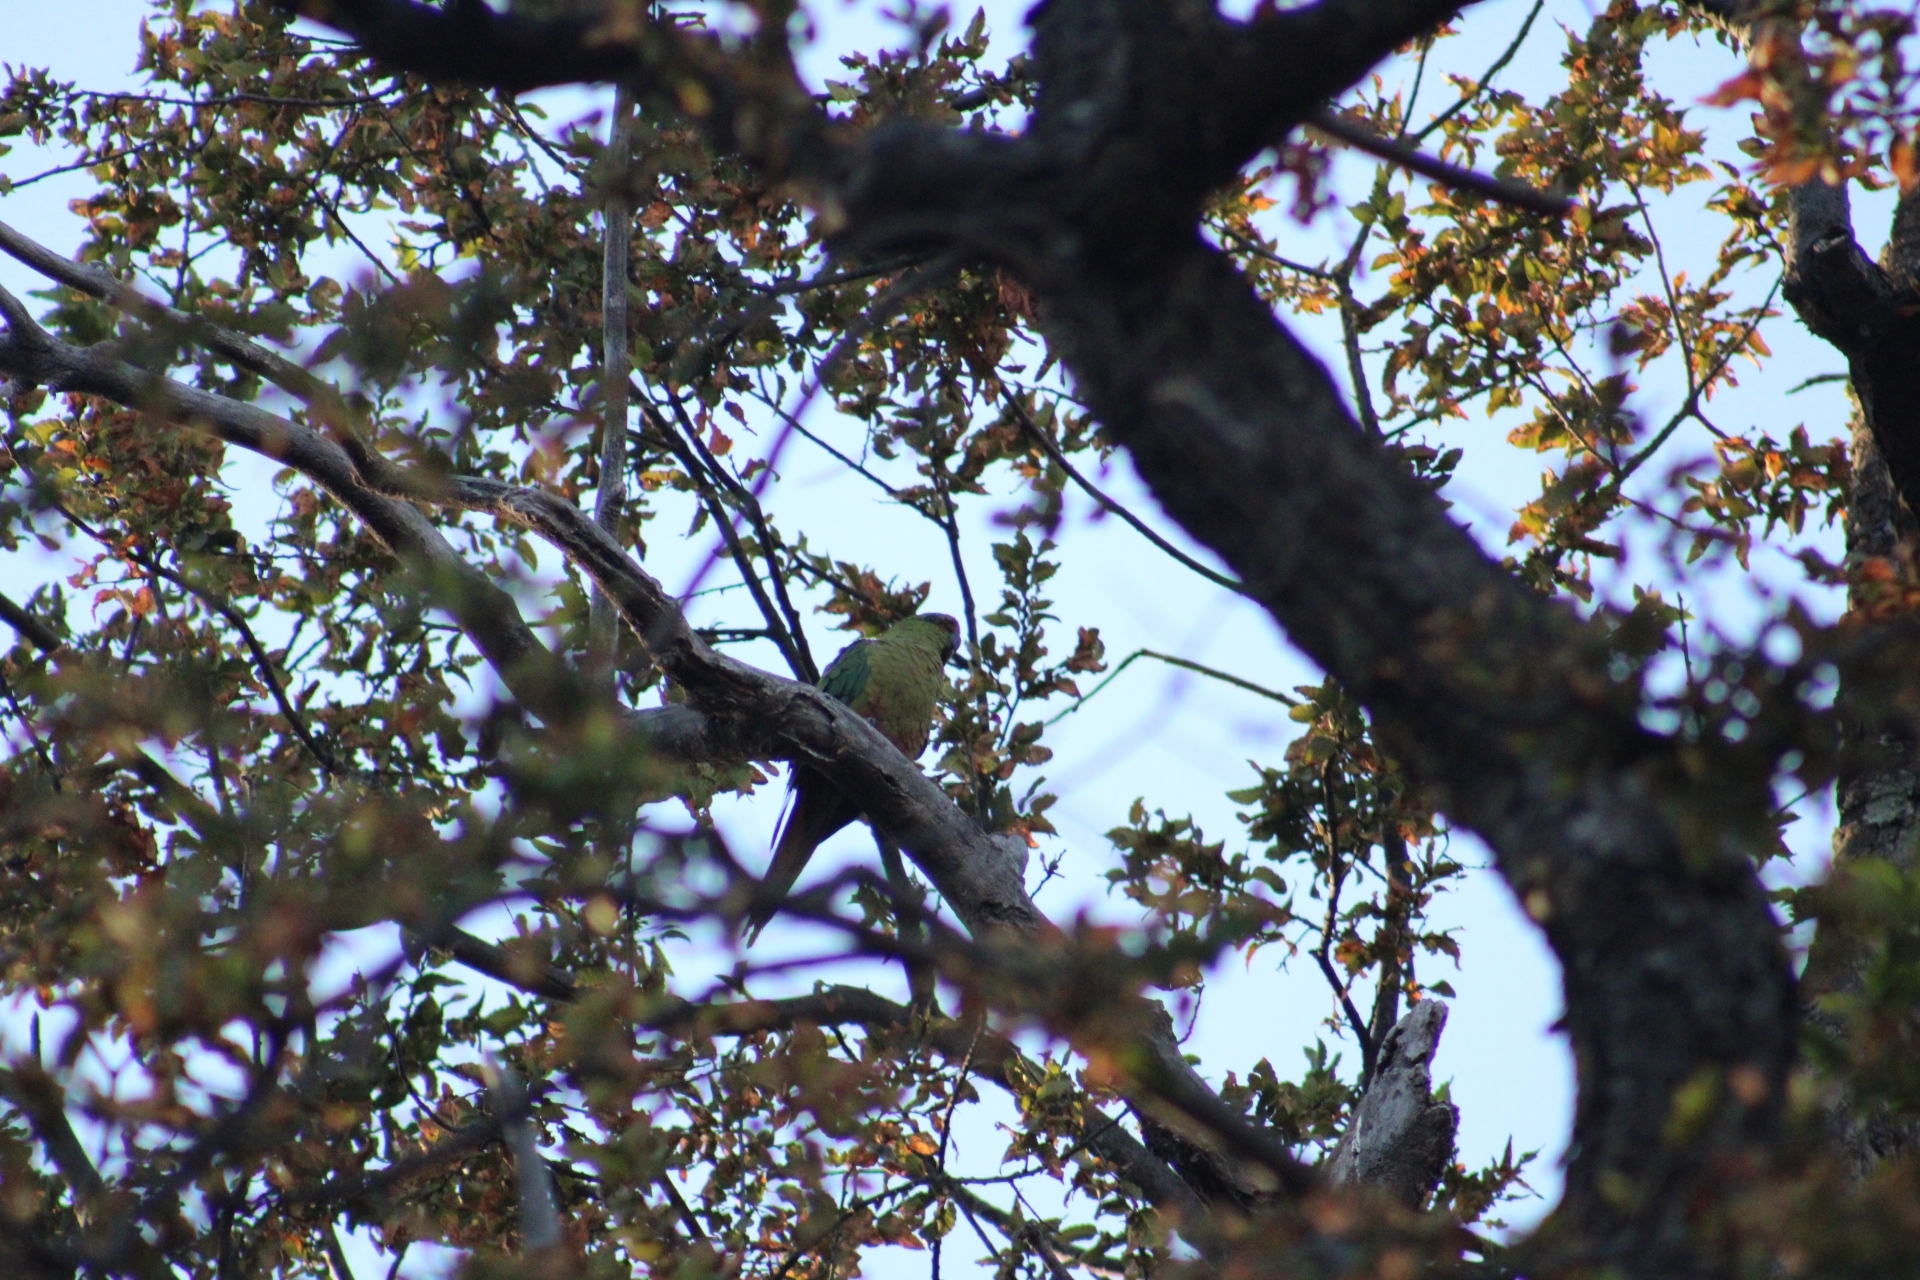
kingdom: Animalia
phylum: Chordata
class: Aves
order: Psittaciformes
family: Psittacidae
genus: Enicognathus
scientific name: Enicognathus ferrugineus
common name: Austral parakeet
